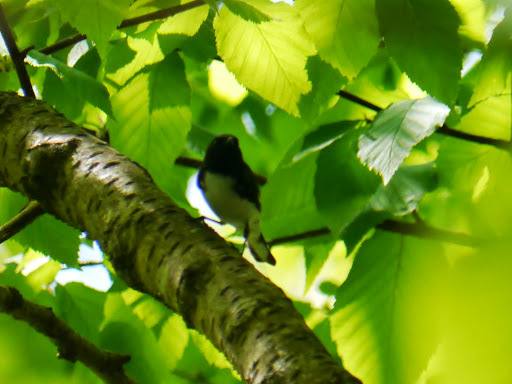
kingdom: Animalia
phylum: Chordata
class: Aves
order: Passeriformes
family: Parulidae
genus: Setophaga
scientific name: Setophaga caerulescens
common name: Black-throated blue warbler
